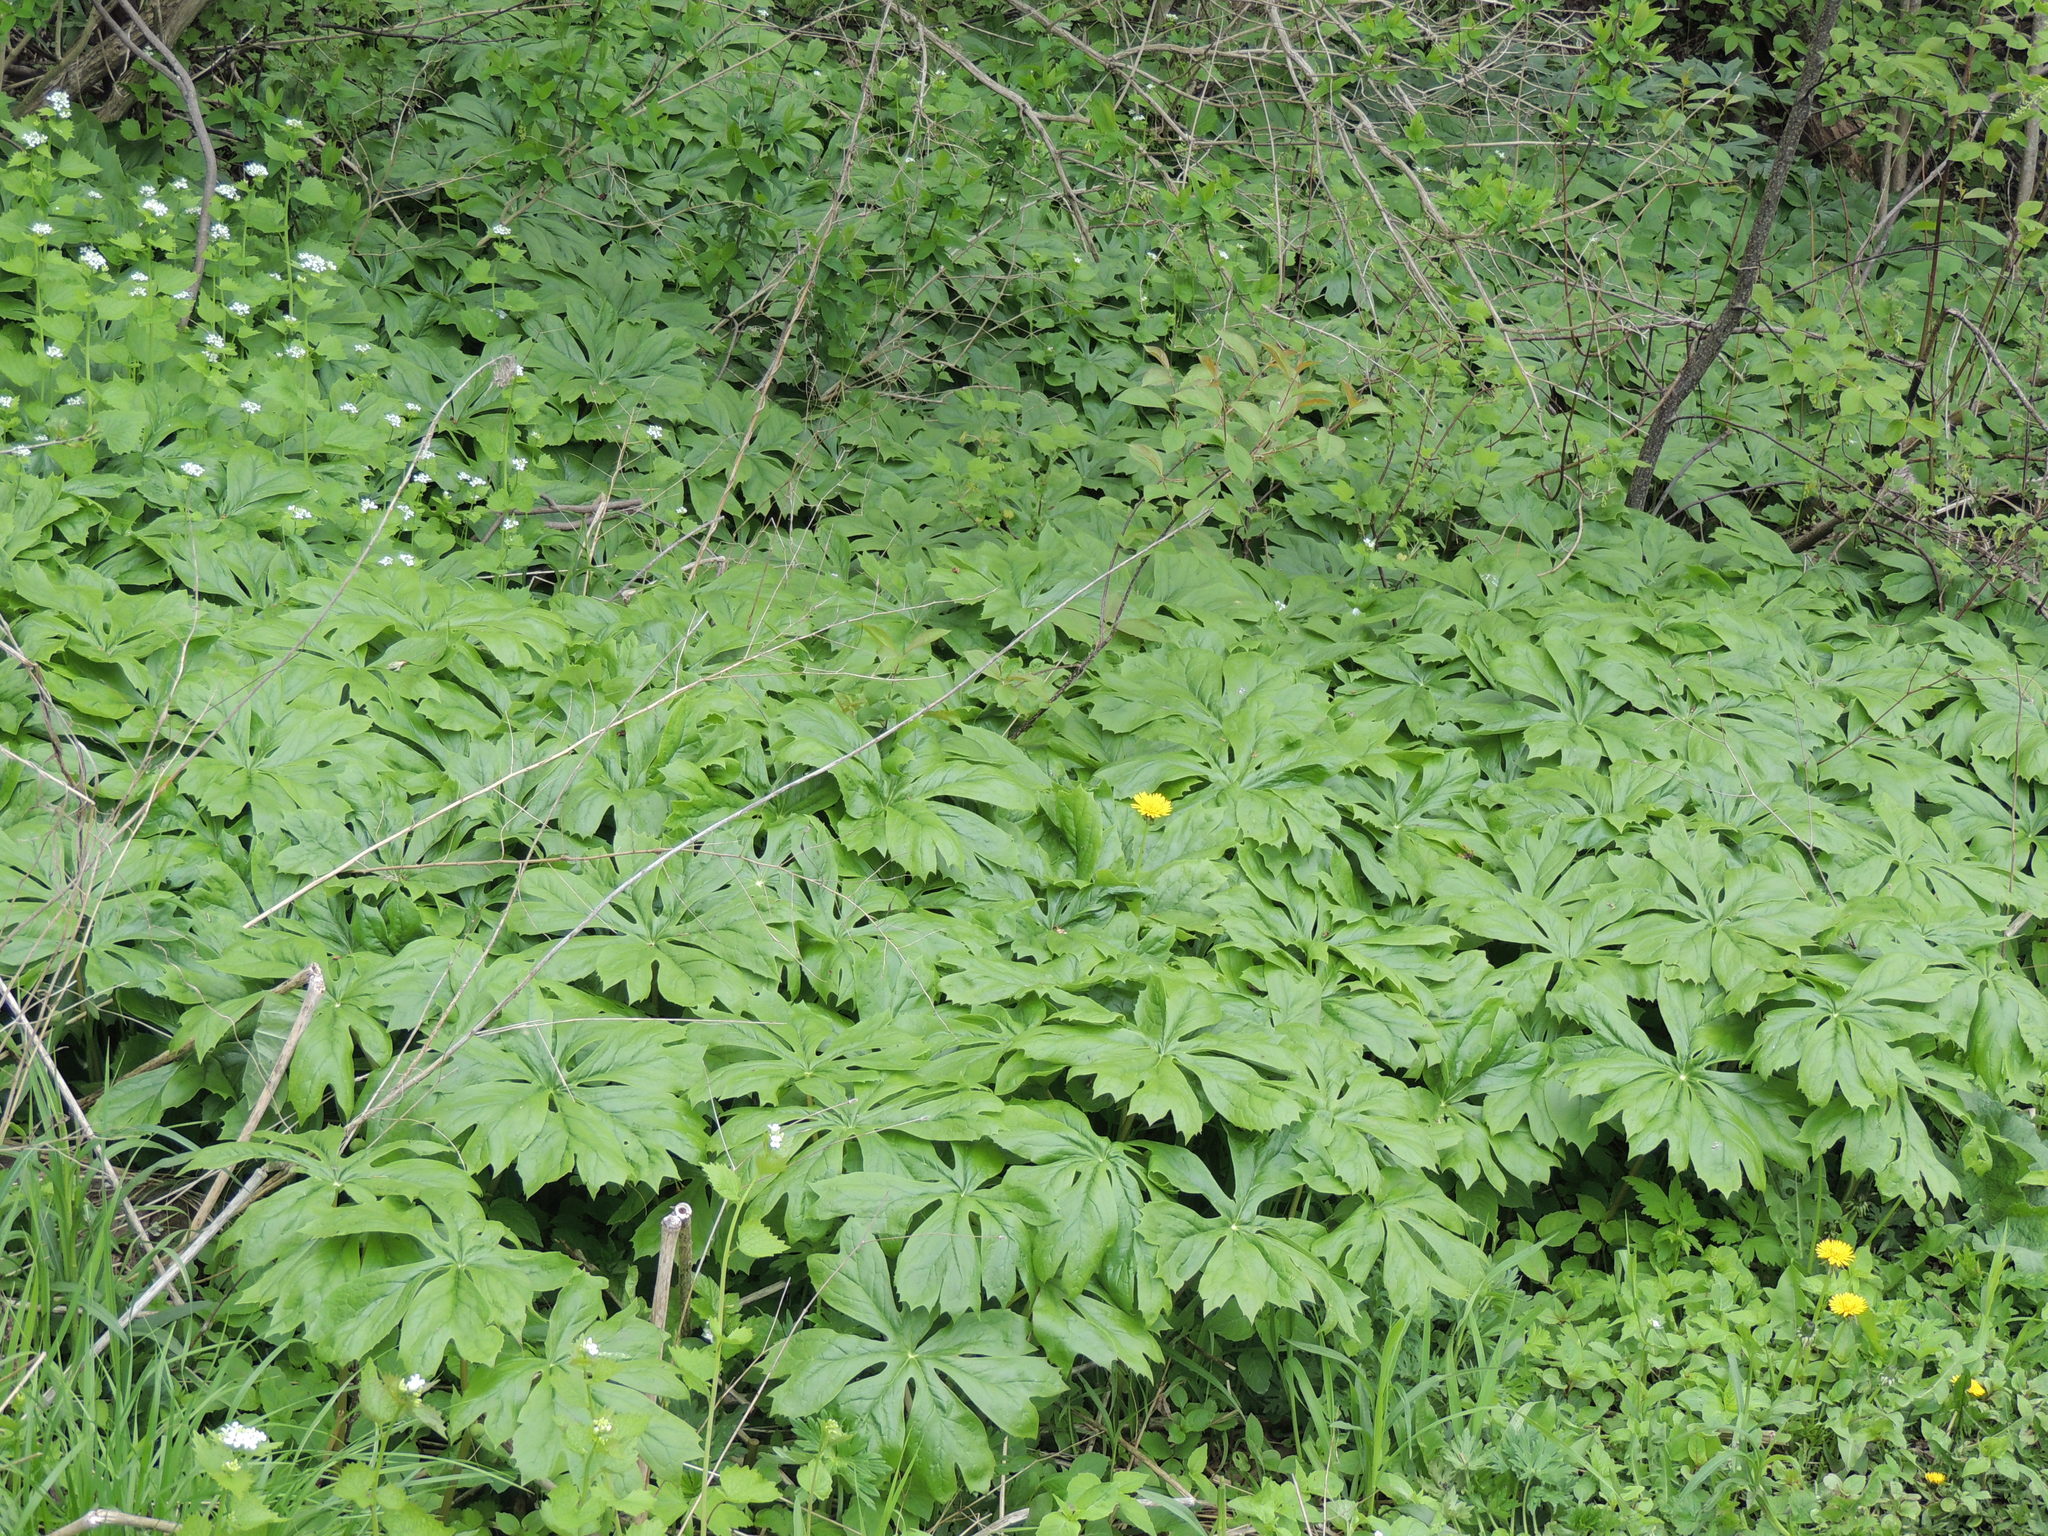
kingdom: Plantae
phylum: Tracheophyta
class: Magnoliopsida
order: Ranunculales
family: Berberidaceae
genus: Podophyllum
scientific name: Podophyllum peltatum
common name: Wild mandrake
